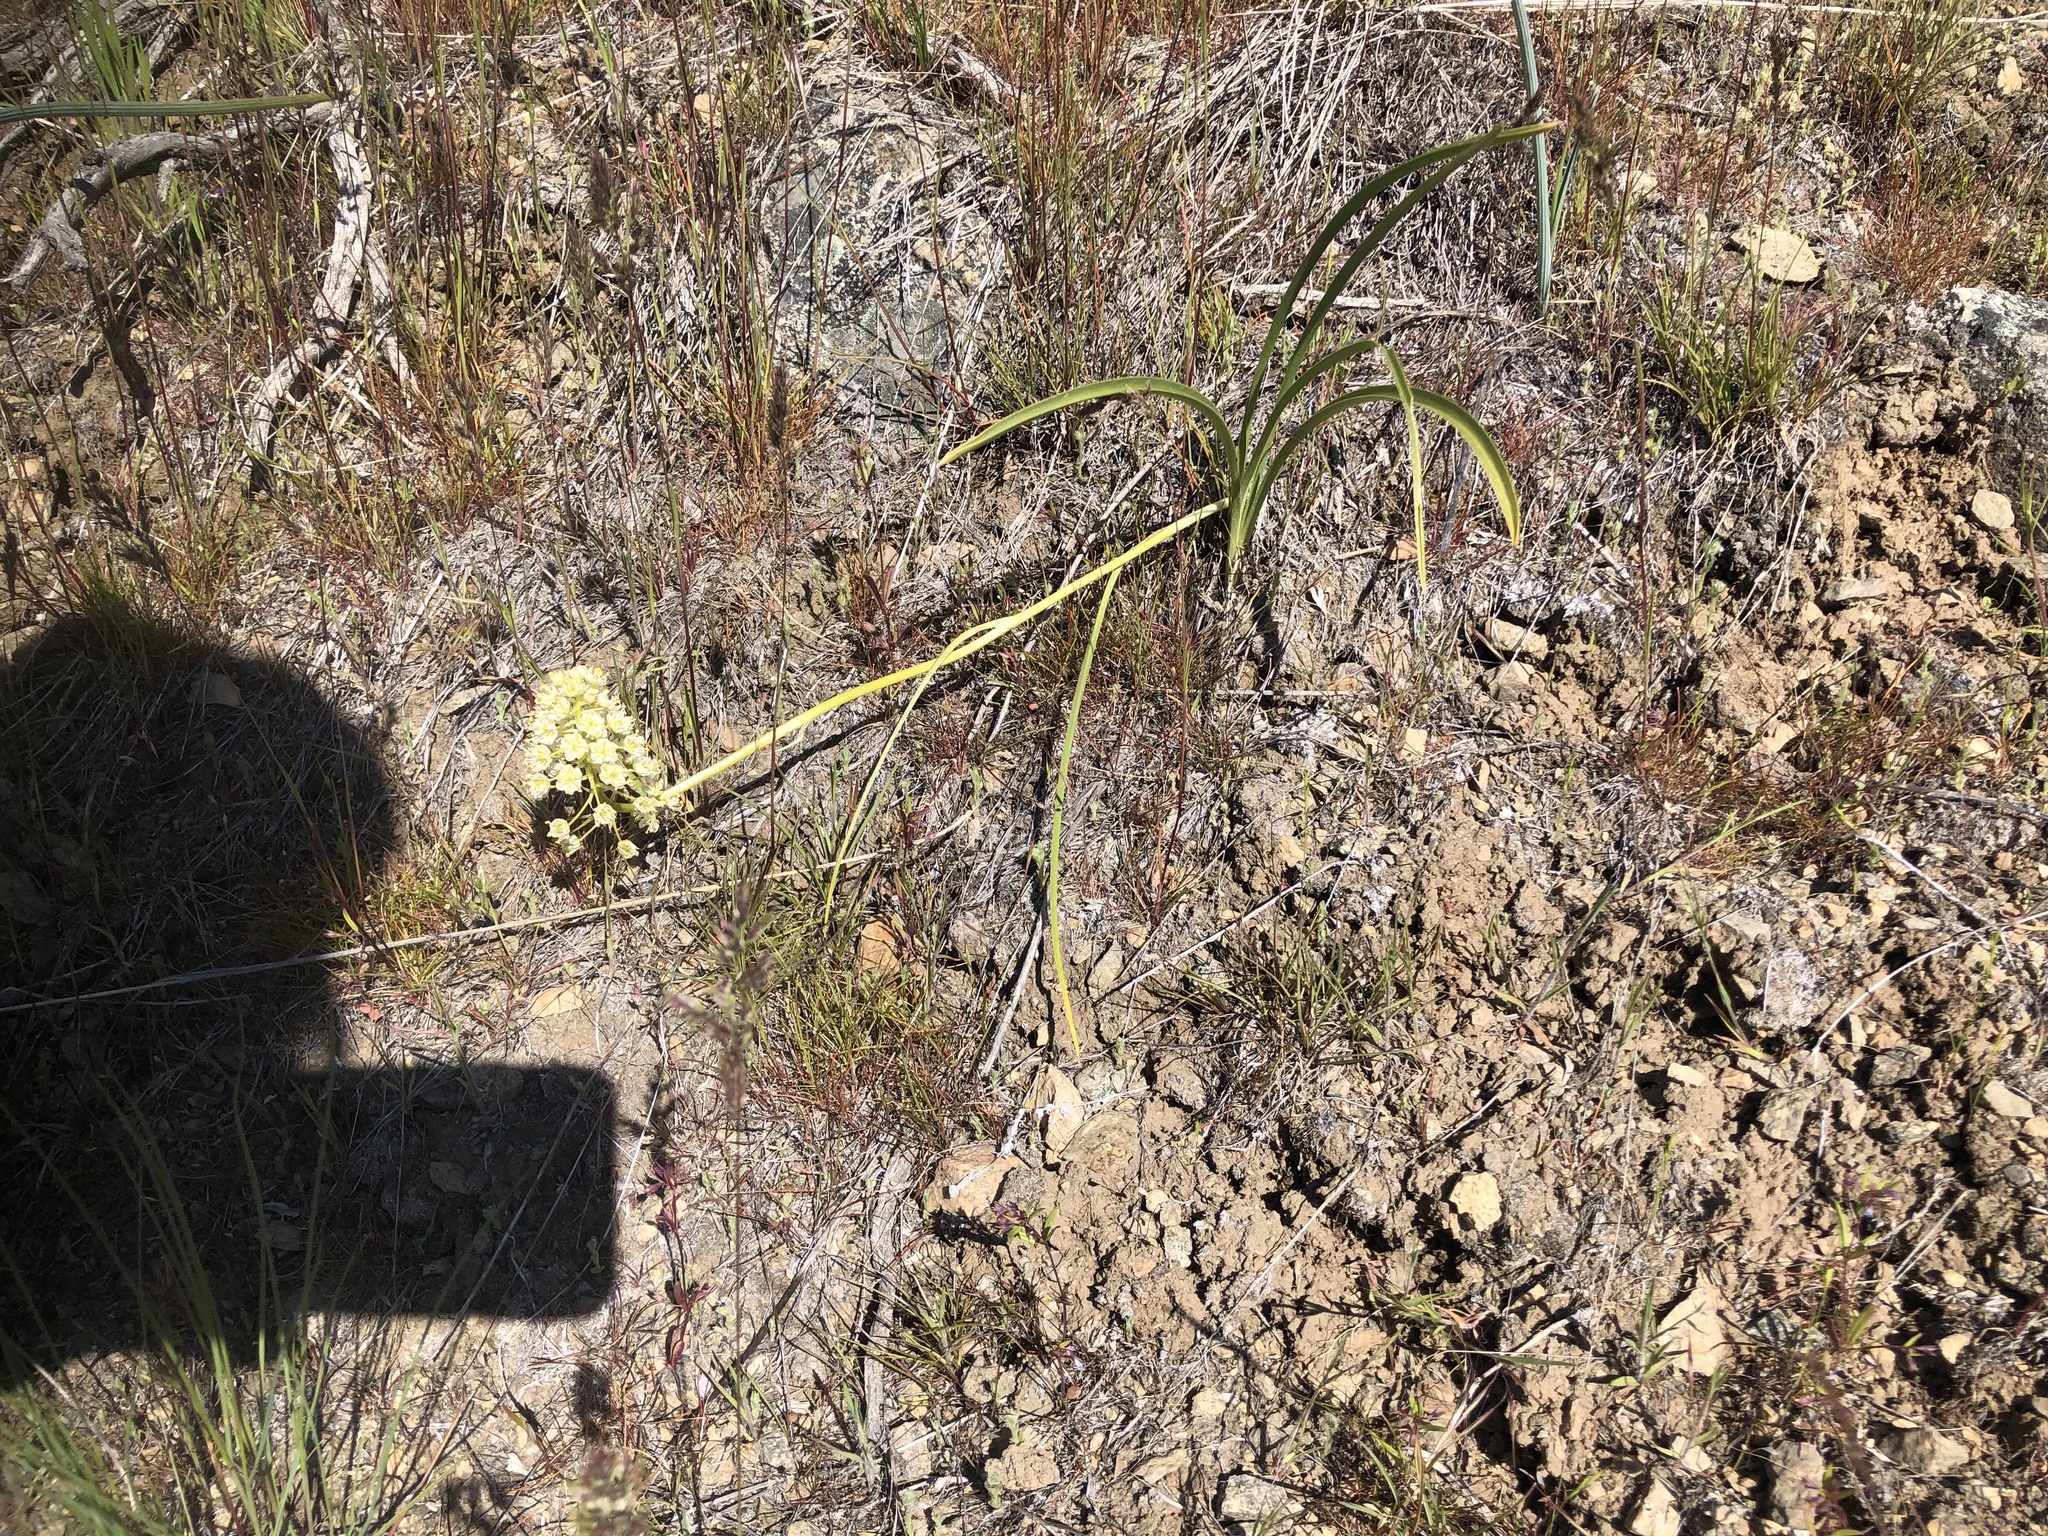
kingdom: Plantae
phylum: Tracheophyta
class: Liliopsida
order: Liliales
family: Melanthiaceae
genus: Toxicoscordion
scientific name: Toxicoscordion venenosum
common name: Meadow death camas
